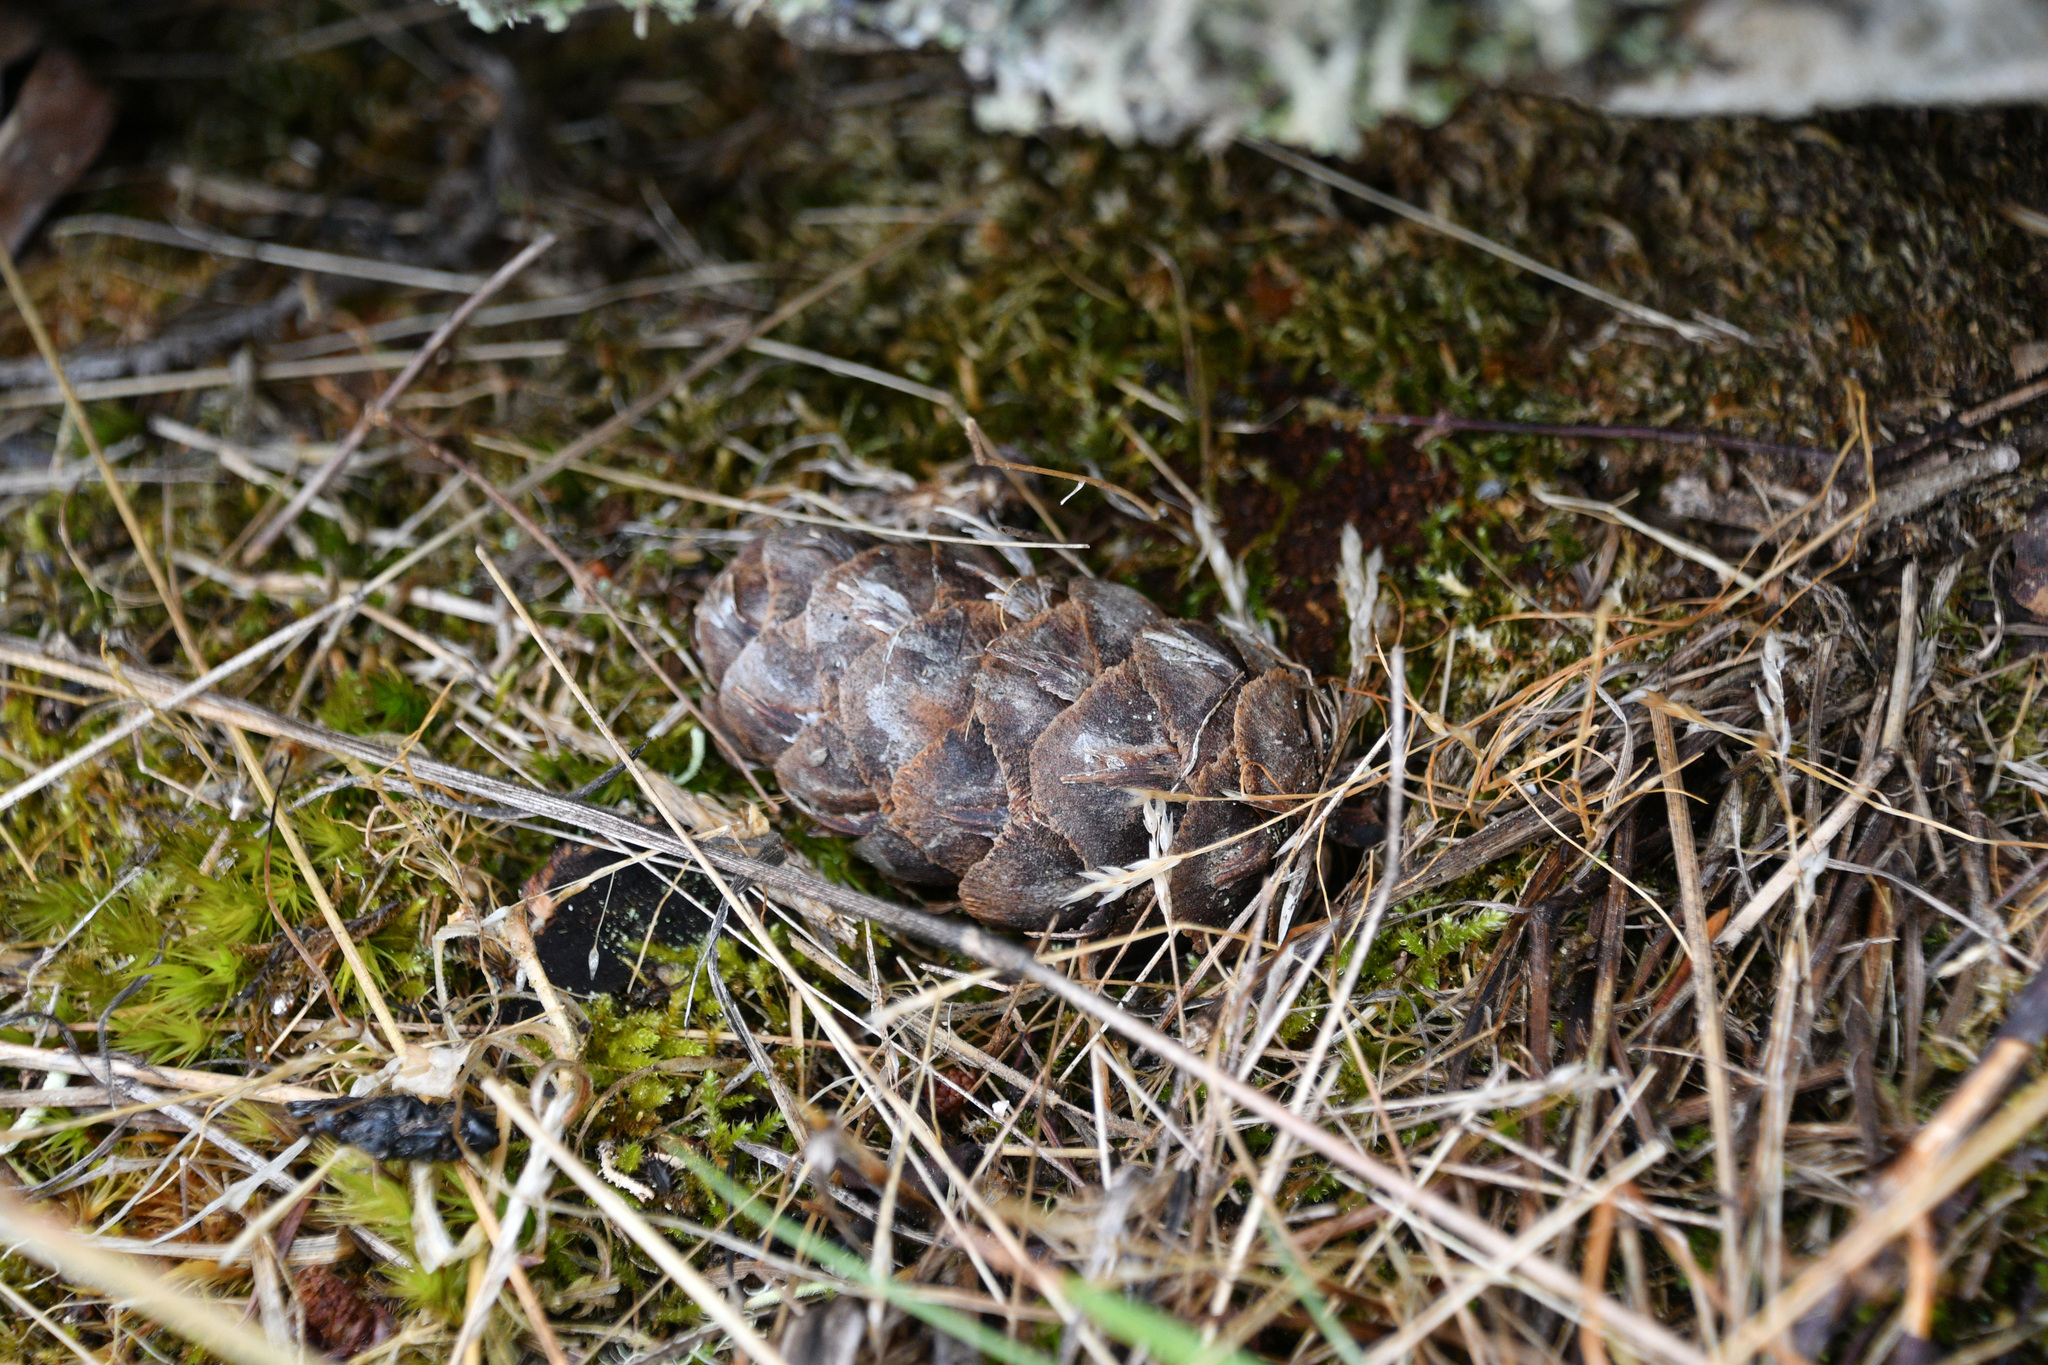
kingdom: Plantae
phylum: Tracheophyta
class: Pinopsida
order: Pinales
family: Pinaceae
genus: Pseudotsuga
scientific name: Pseudotsuga menziesii
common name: Douglas fir
